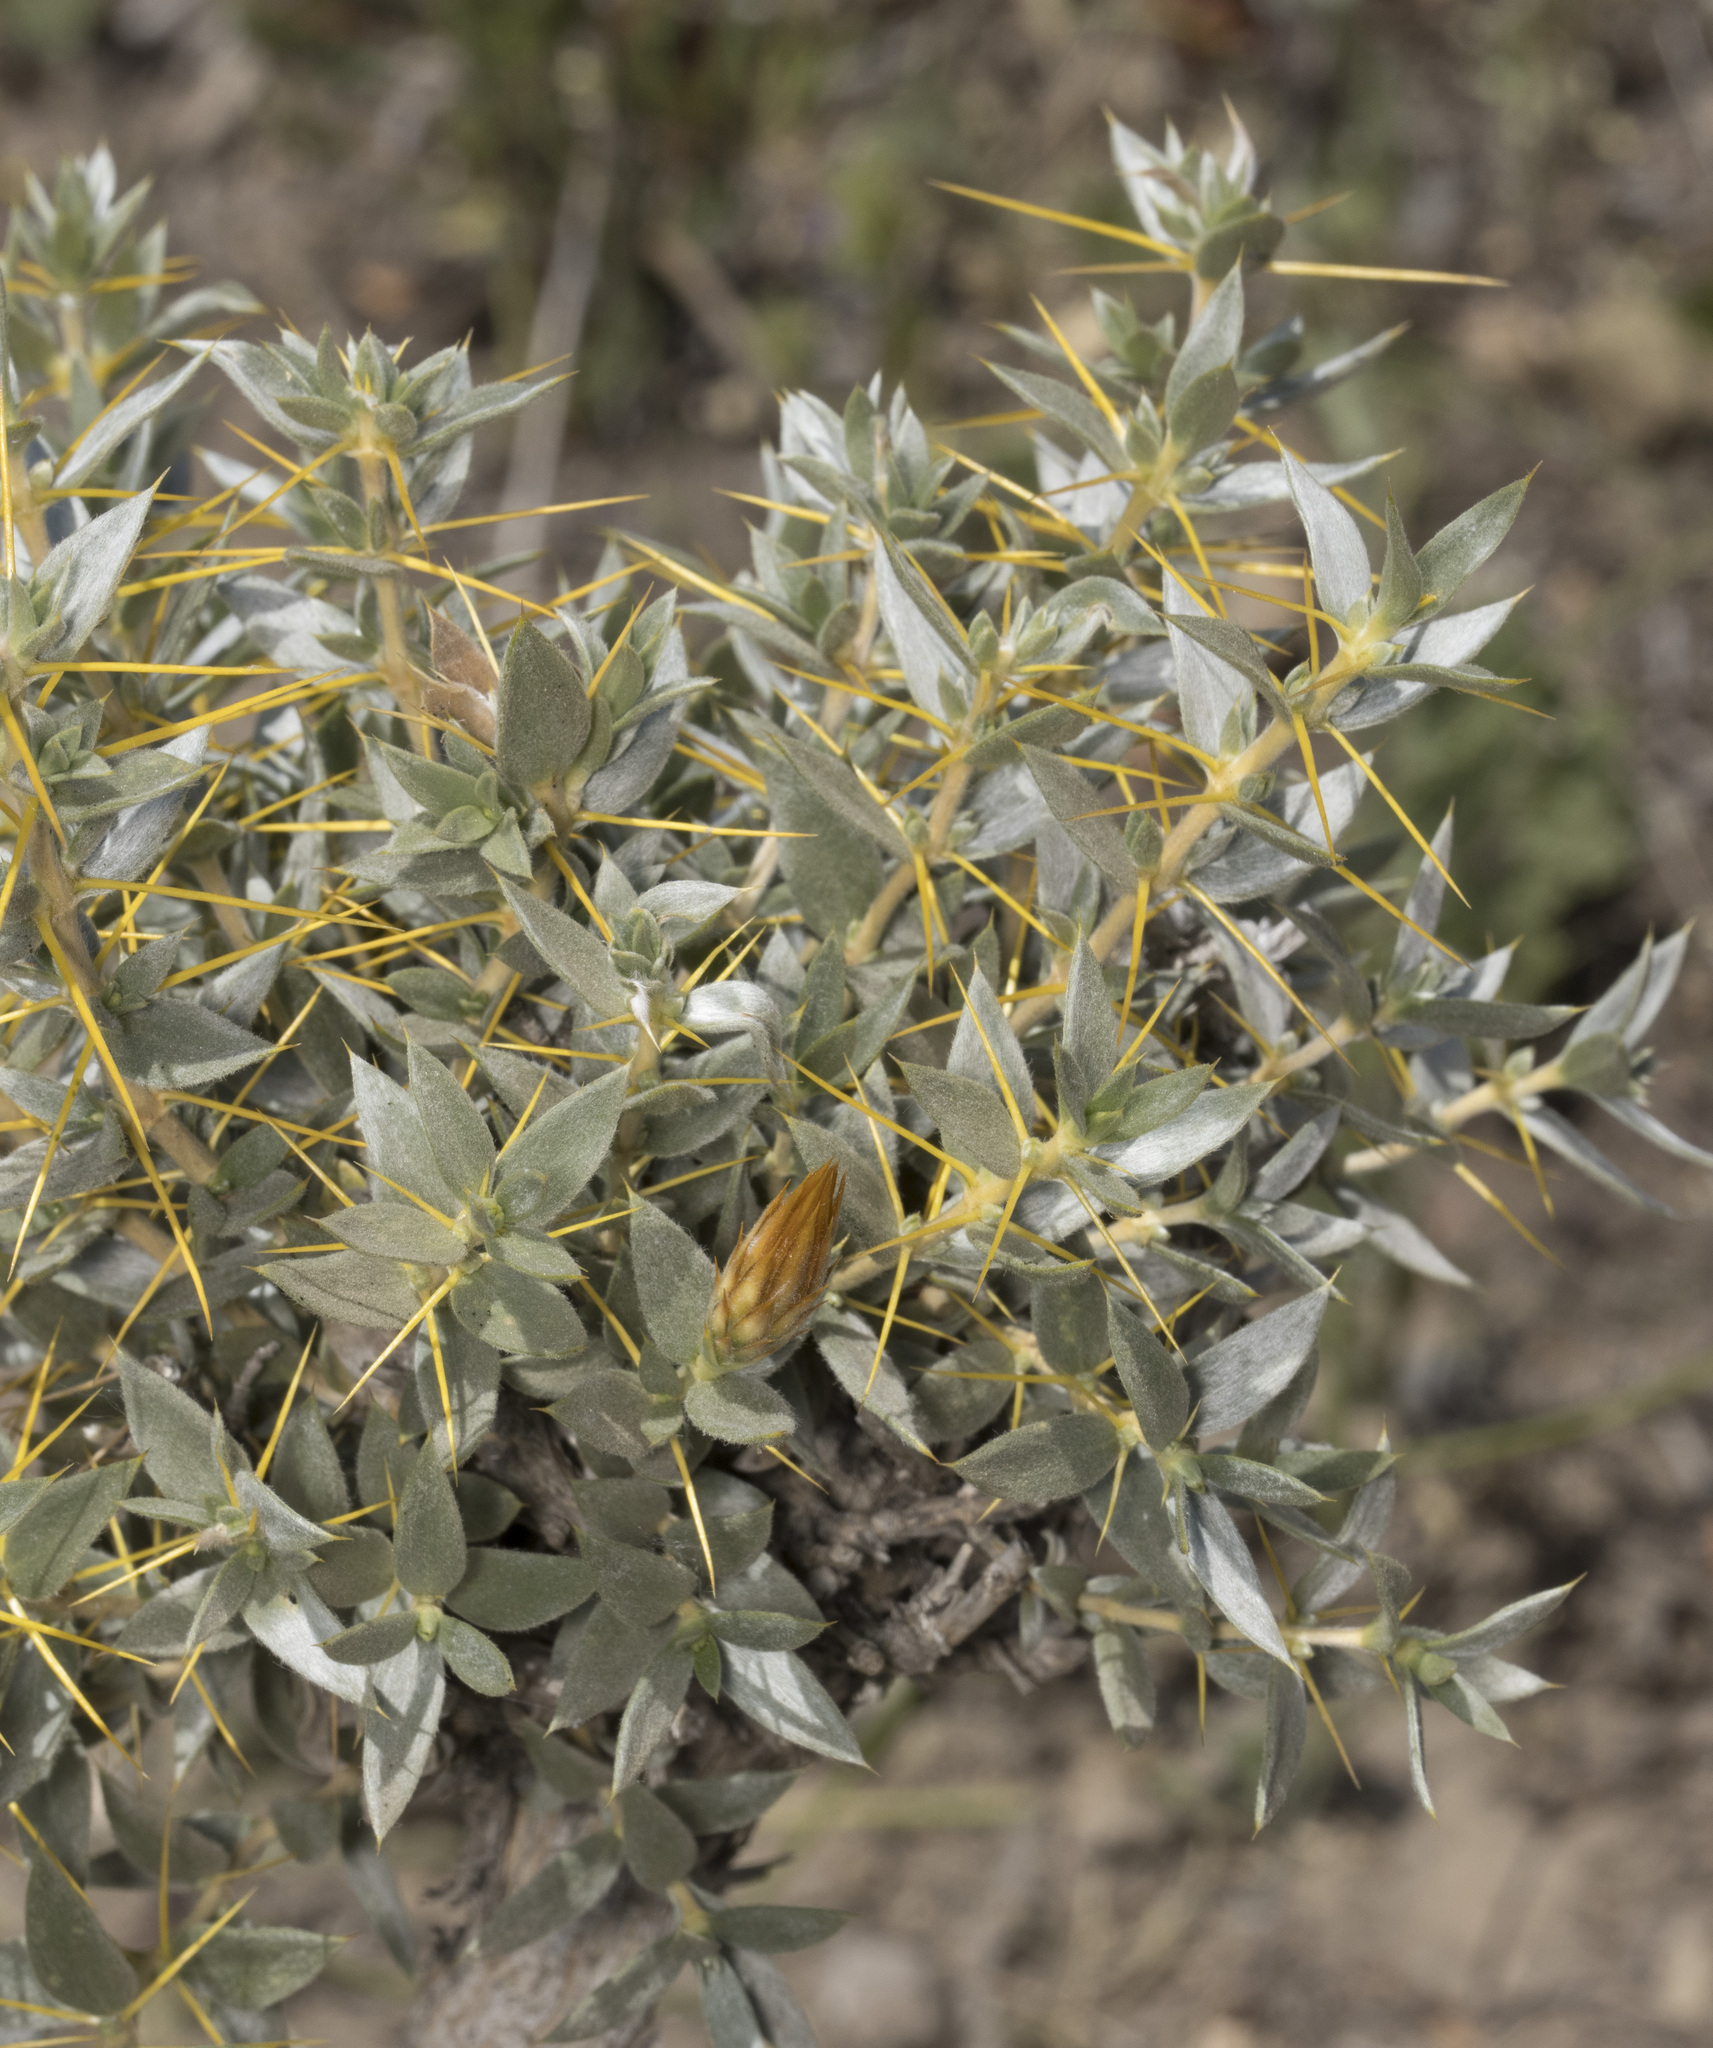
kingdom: Plantae
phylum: Tracheophyta
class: Magnoliopsida
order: Asterales
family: Asteraceae
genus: Chuquiraga
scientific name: Chuquiraga oppositifolia
